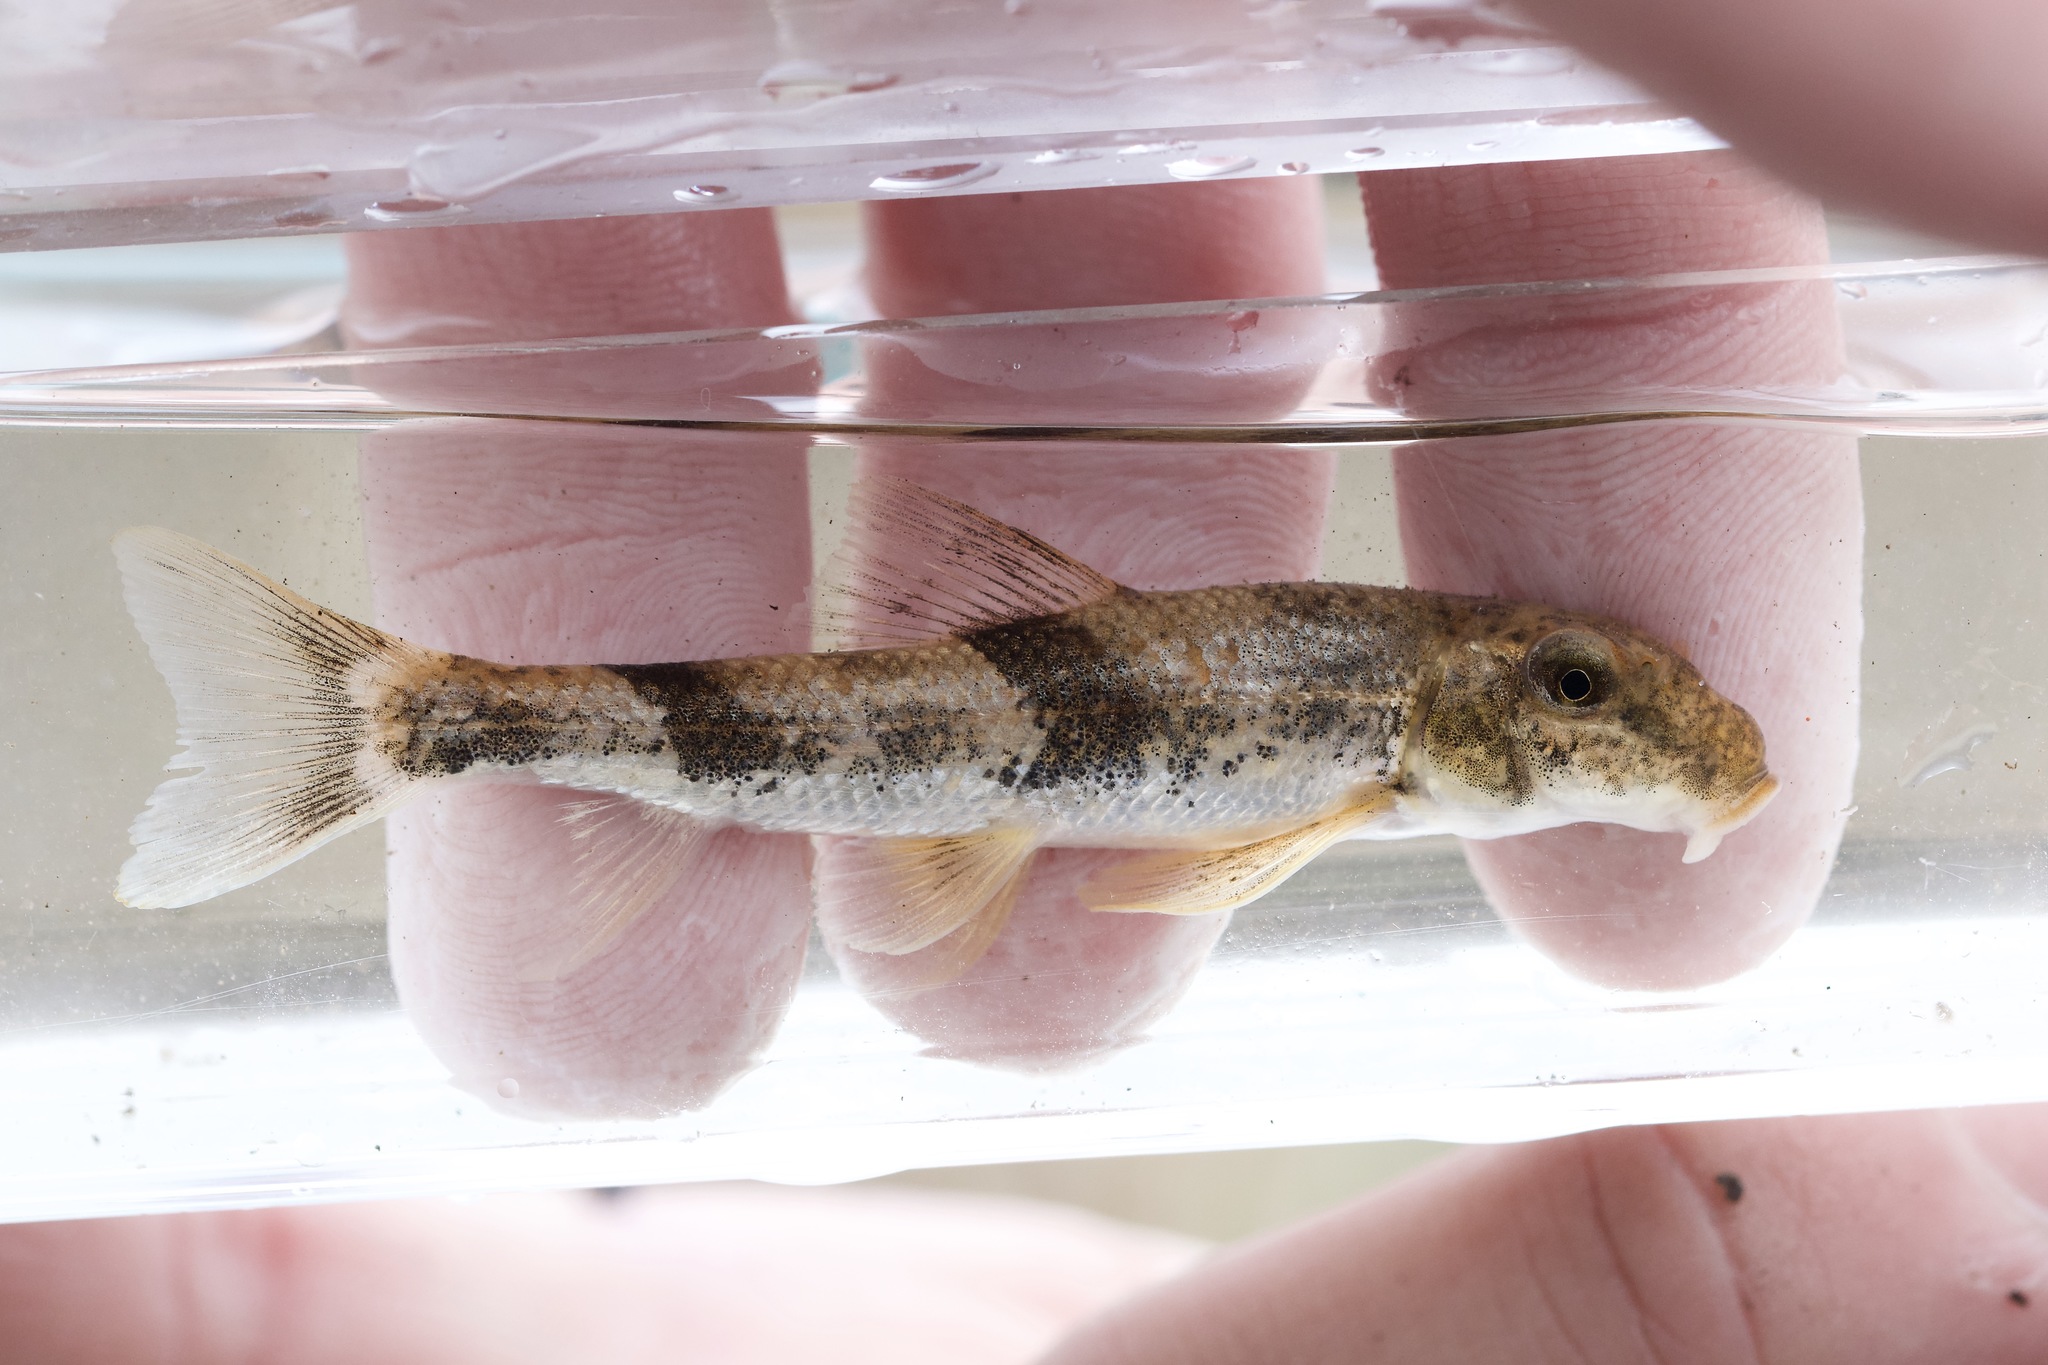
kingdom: Animalia
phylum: Chordata
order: Cypriniformes
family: Catostomidae
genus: Hypentelium
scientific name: Hypentelium nigricans
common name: Northern hog sucker
